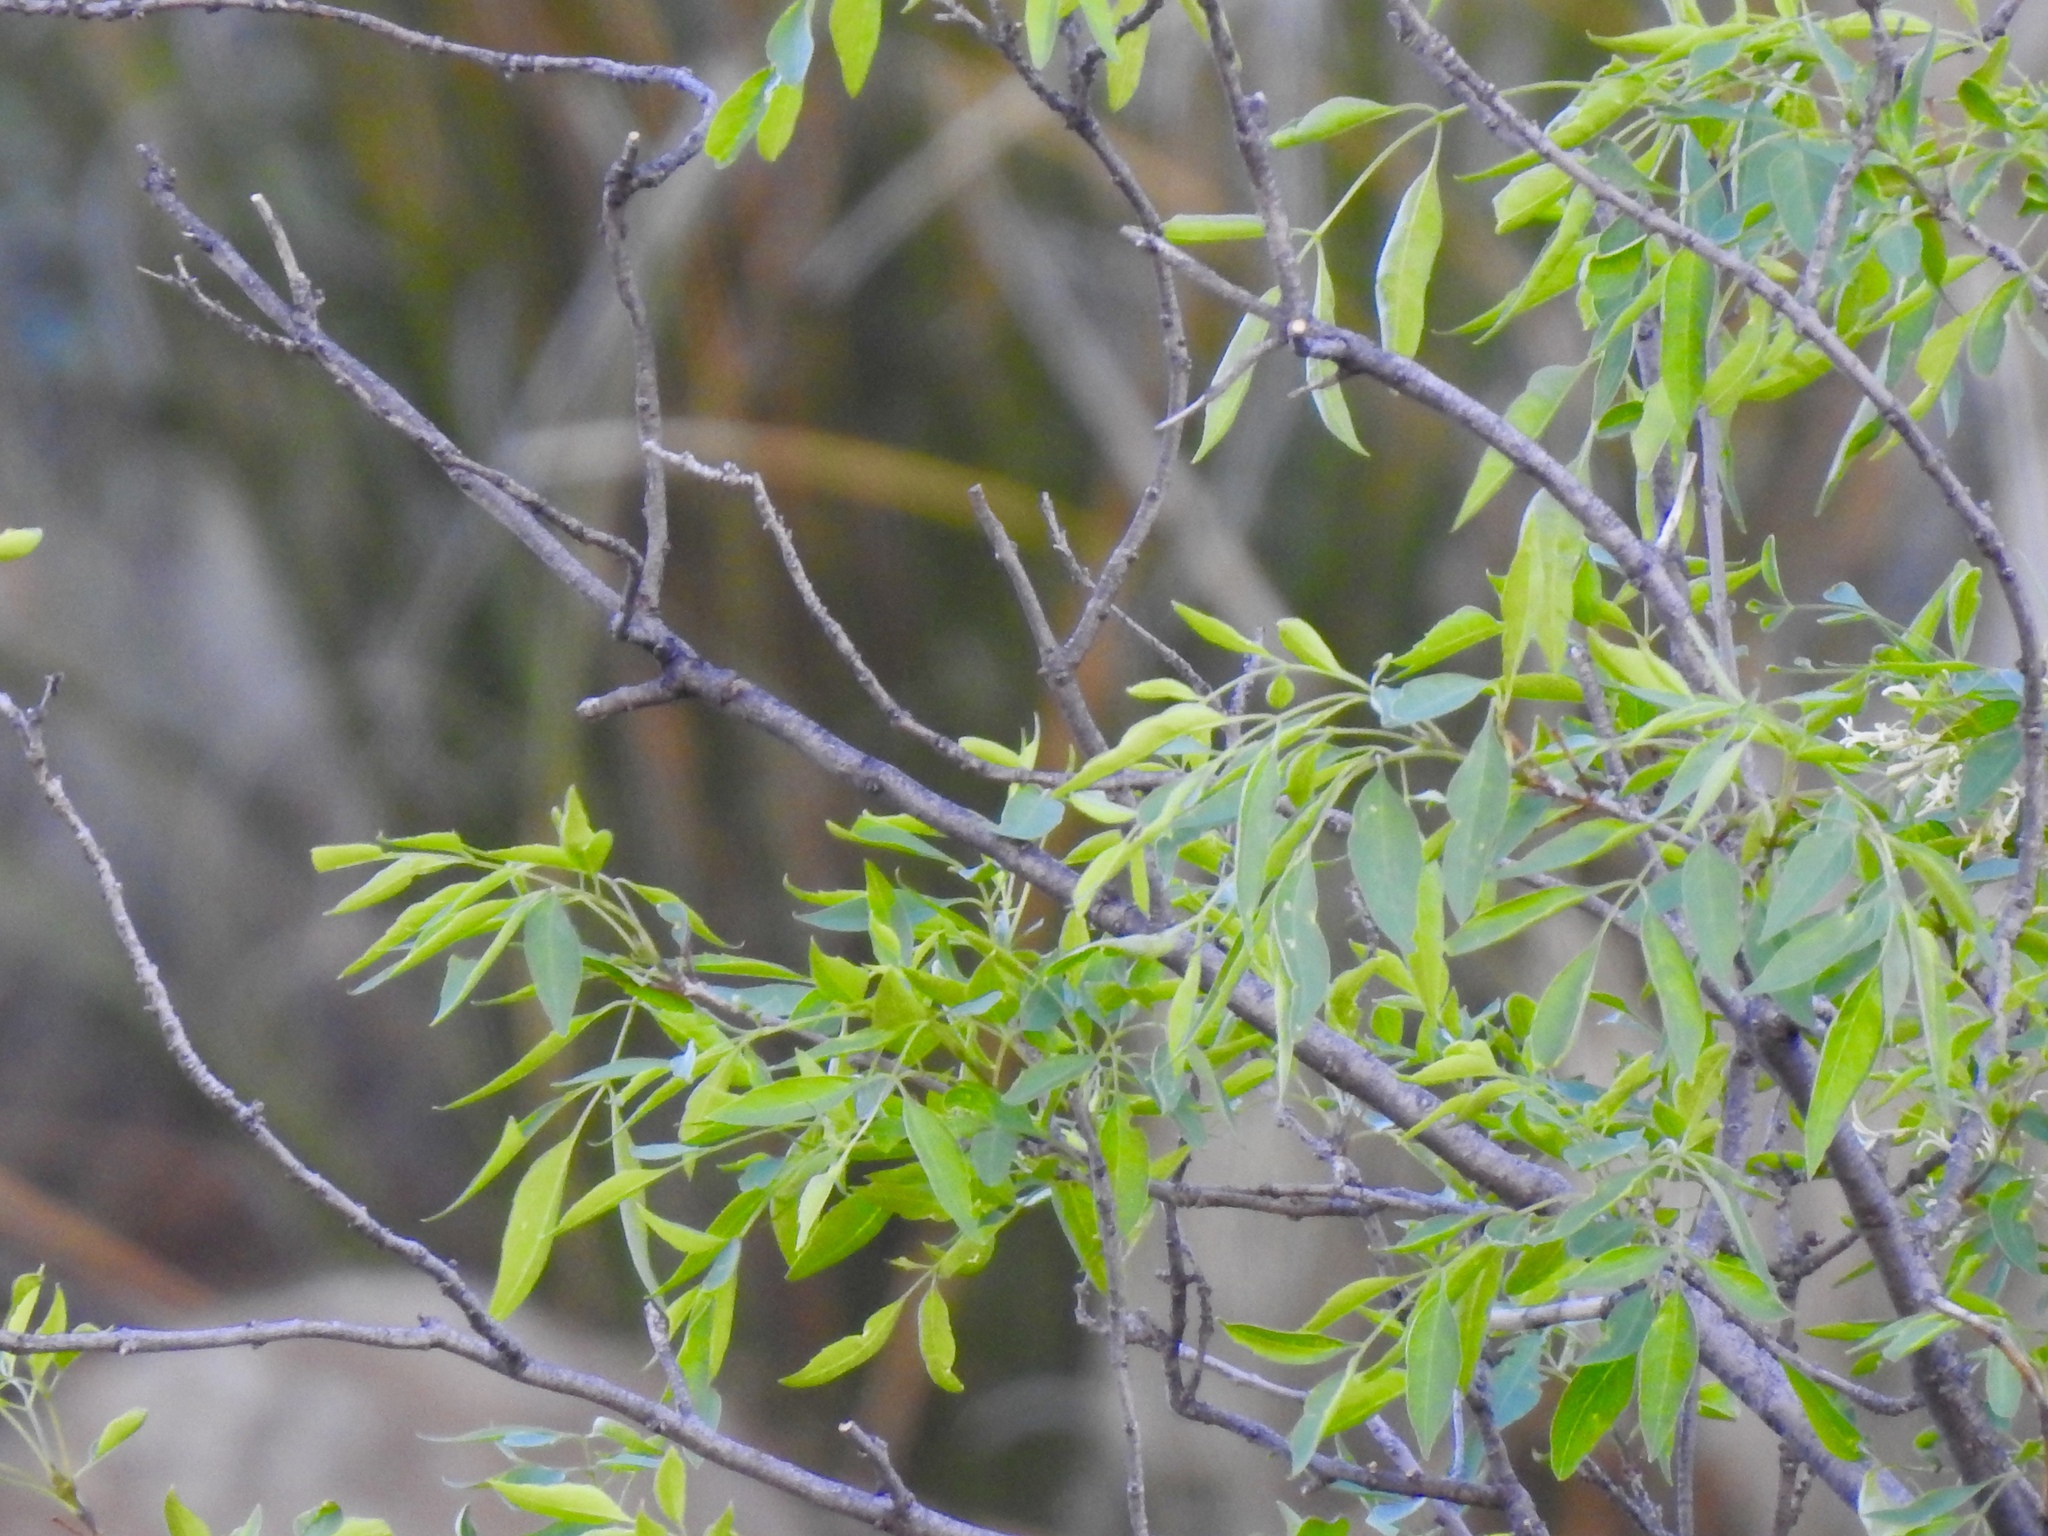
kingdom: Plantae
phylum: Tracheophyta
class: Magnoliopsida
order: Lamiales
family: Oleaceae
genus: Fraxinus
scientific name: Fraxinus cuspidata
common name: Fragrant ash
